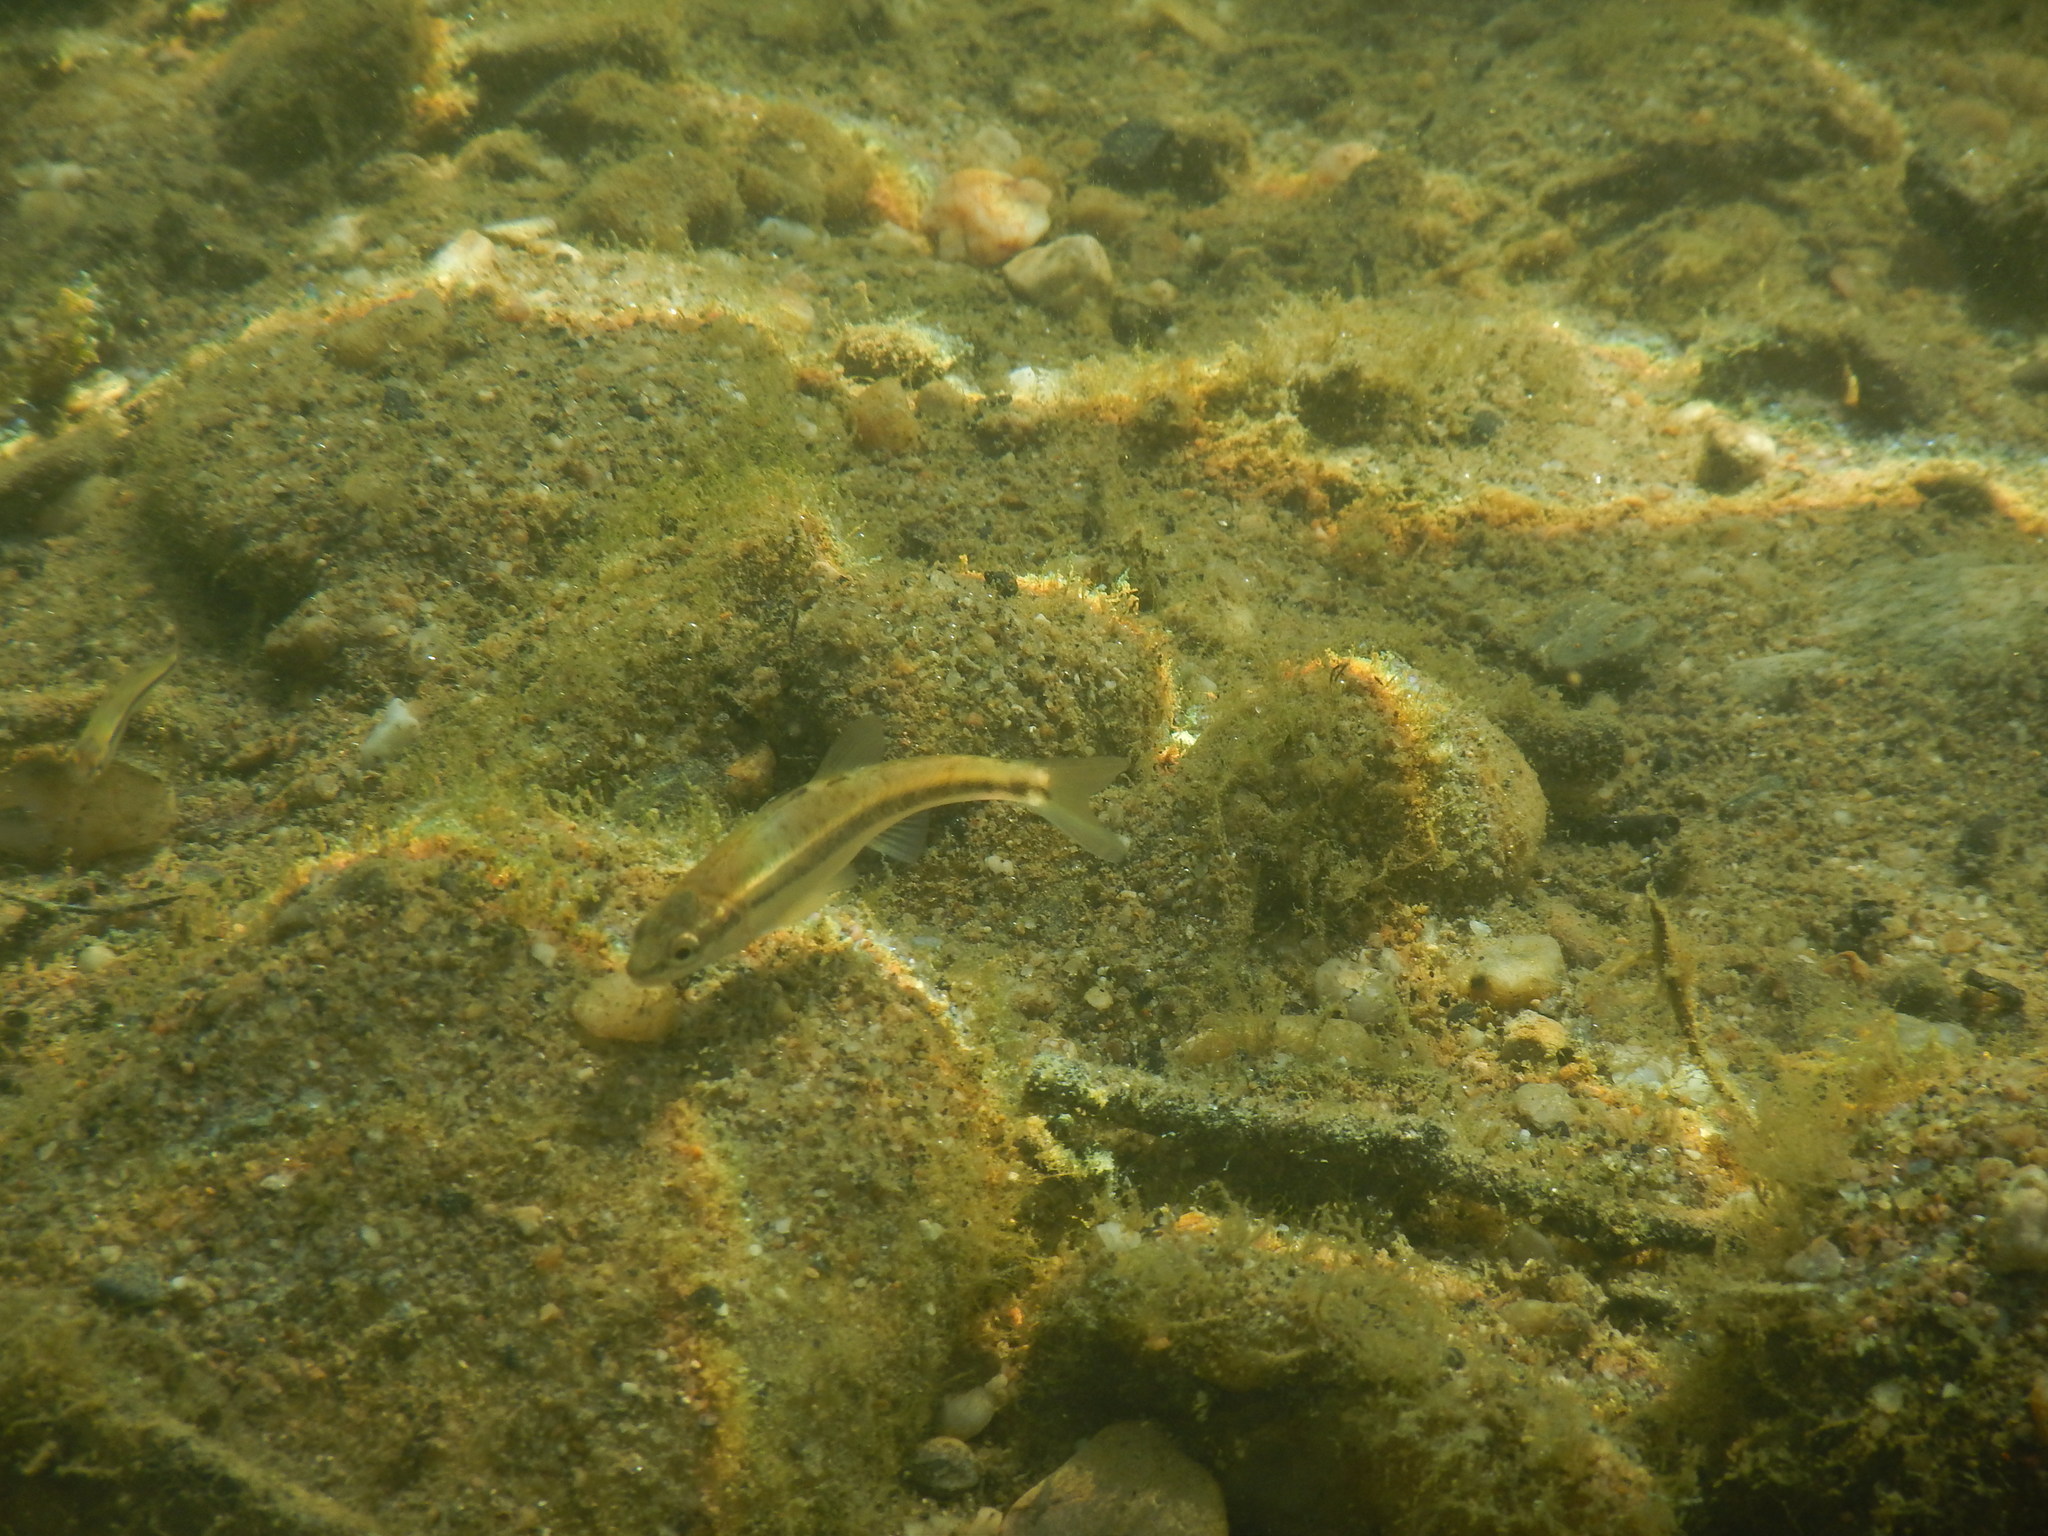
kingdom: Animalia
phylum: Chordata
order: Cypriniformes
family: Cyprinidae
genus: Phoxinus
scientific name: Phoxinus septimaniae
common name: Languedoc minnow
